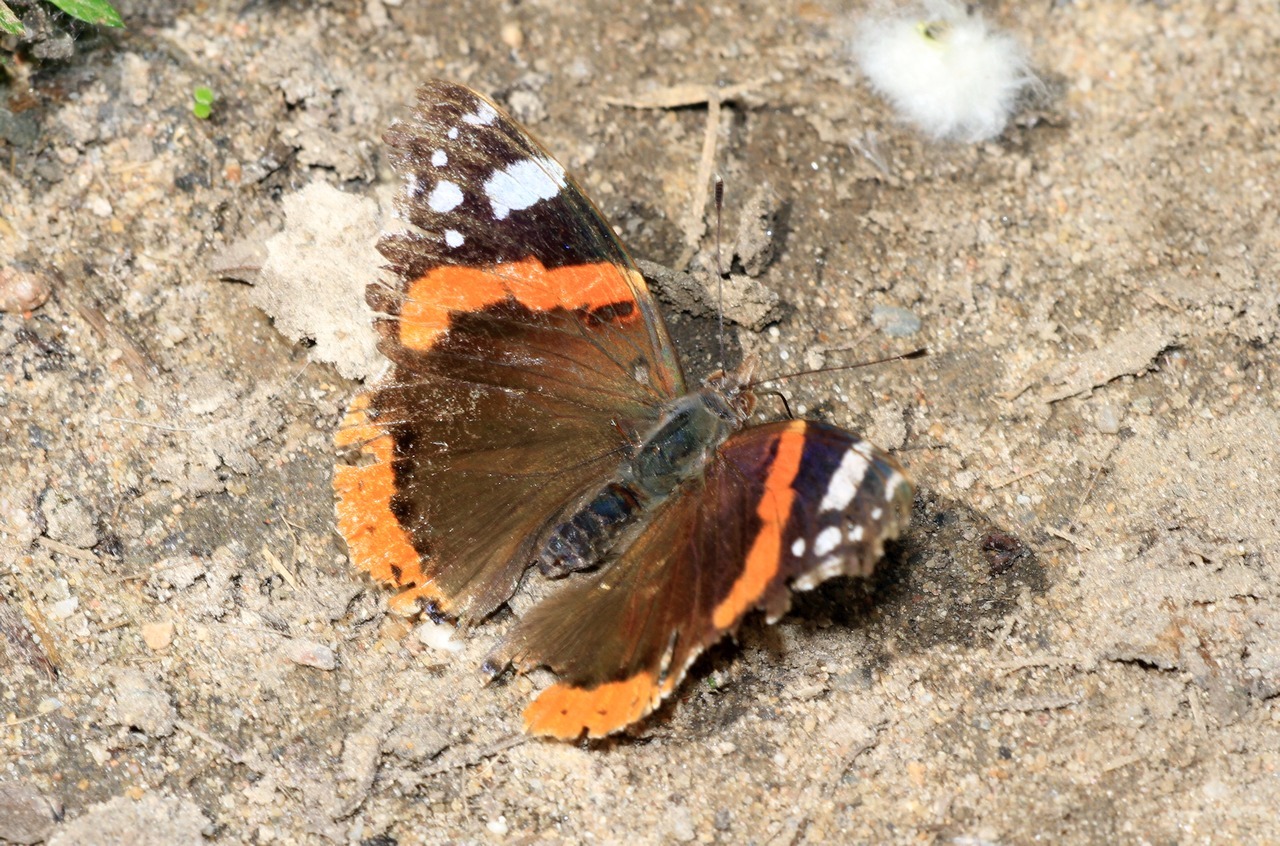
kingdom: Animalia
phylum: Arthropoda
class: Insecta
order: Lepidoptera
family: Nymphalidae
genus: Vanessa
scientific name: Vanessa atalanta
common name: Red admiral
